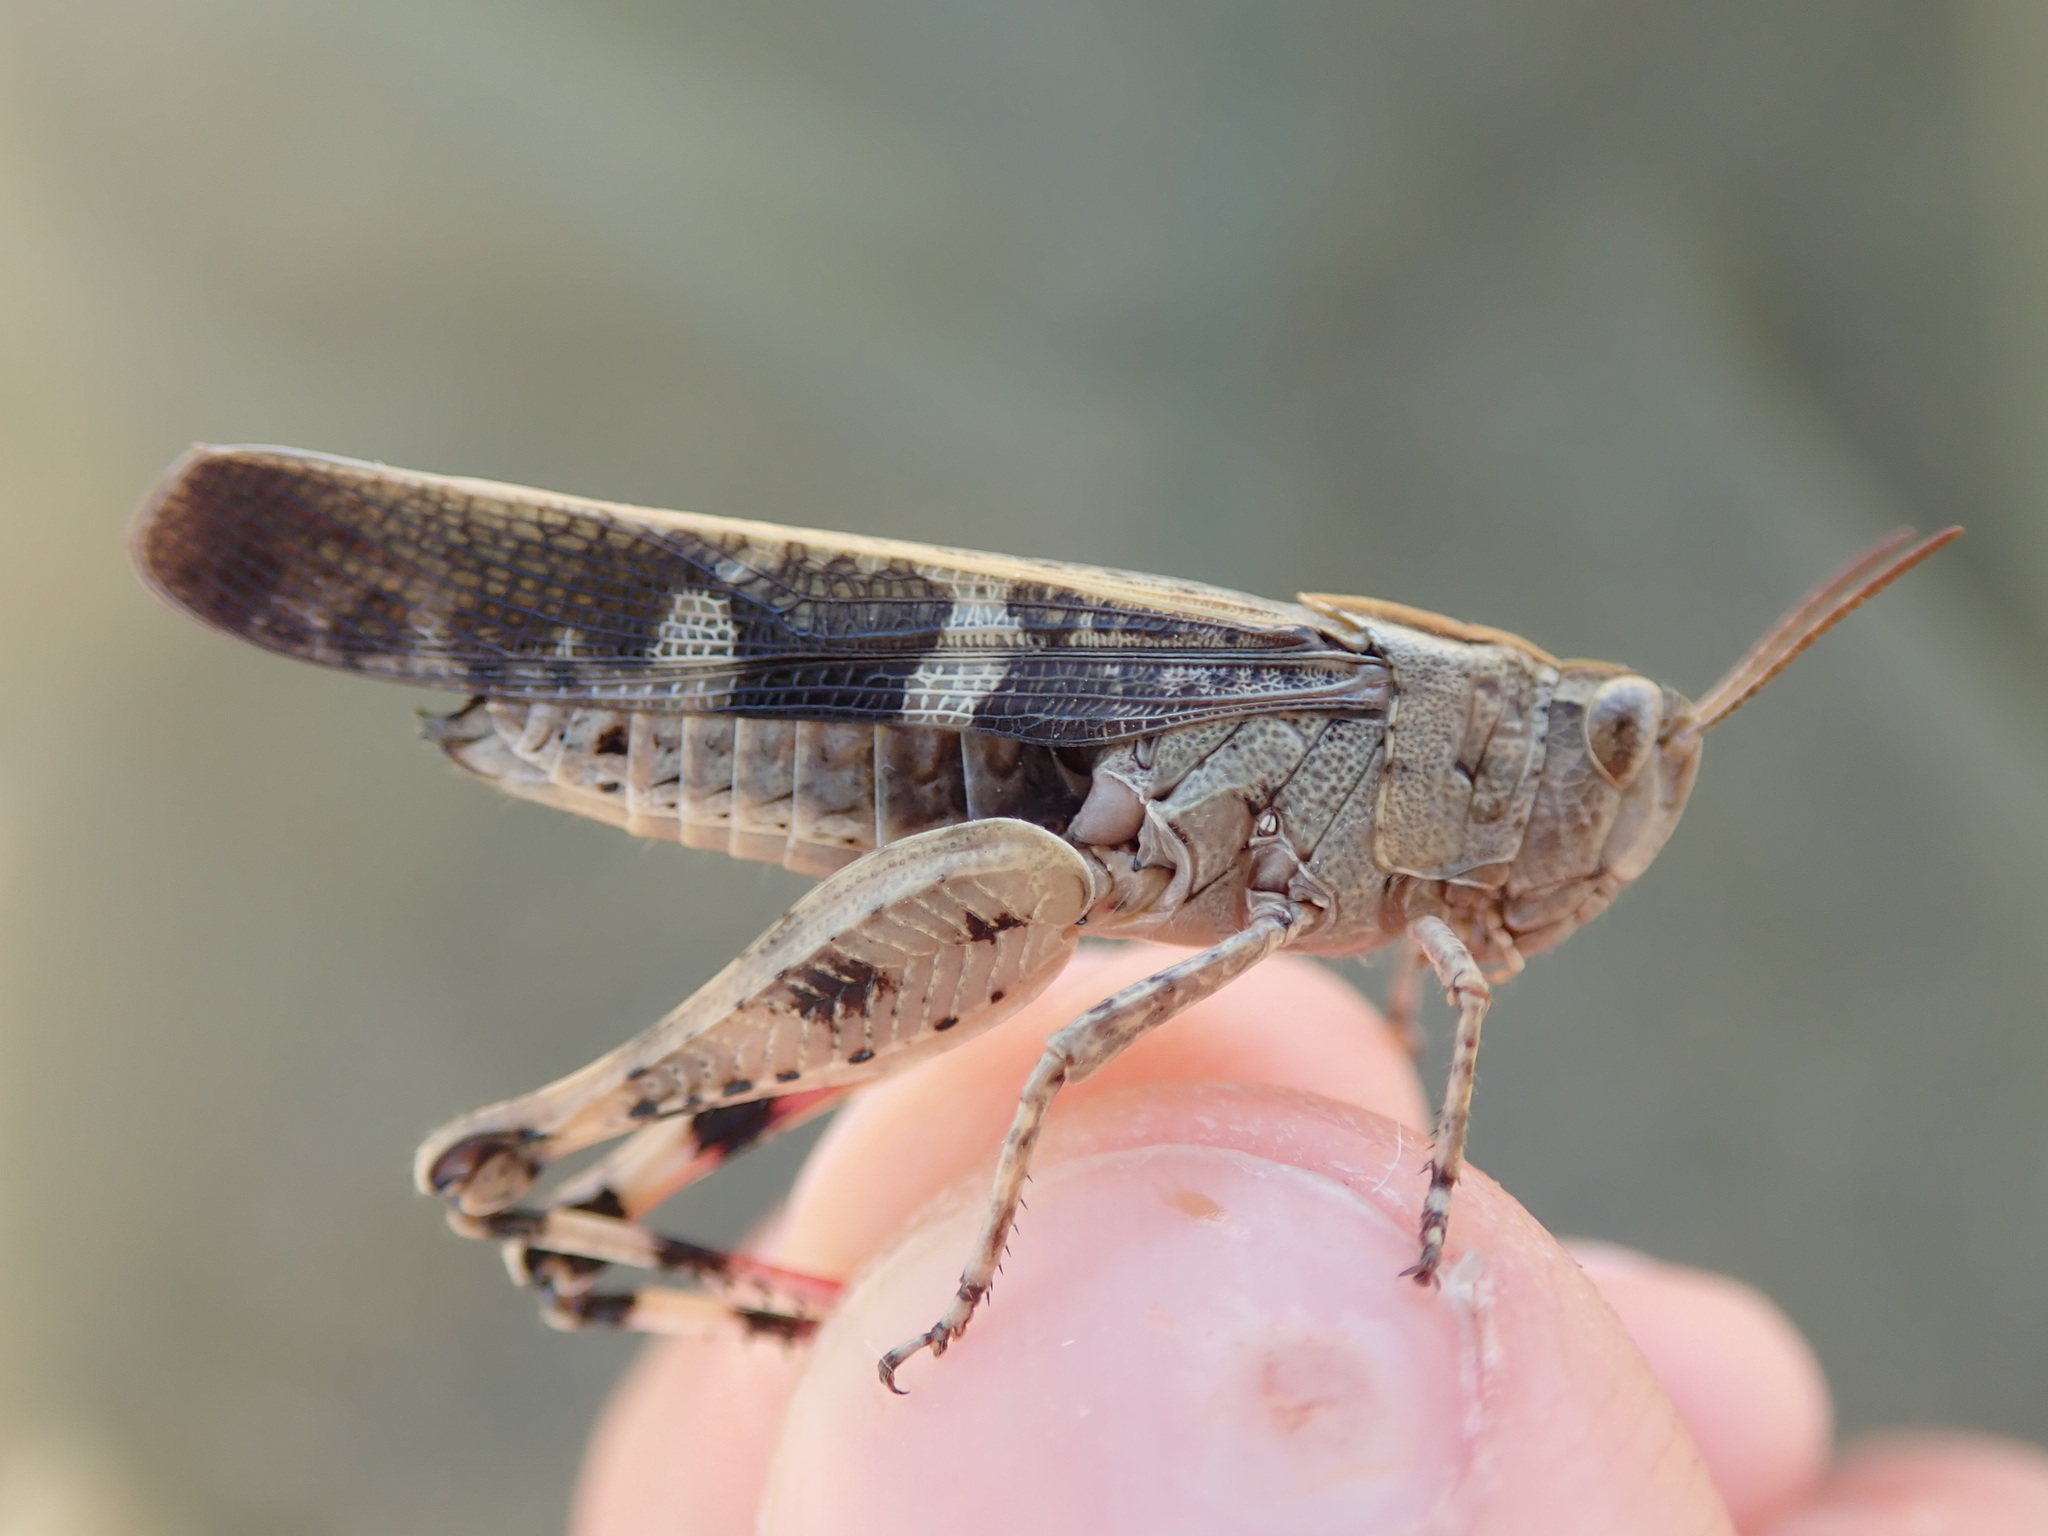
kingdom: Animalia
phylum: Arthropoda
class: Insecta
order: Orthoptera
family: Acrididae
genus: Aiolopus
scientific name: Aiolopus strepens
